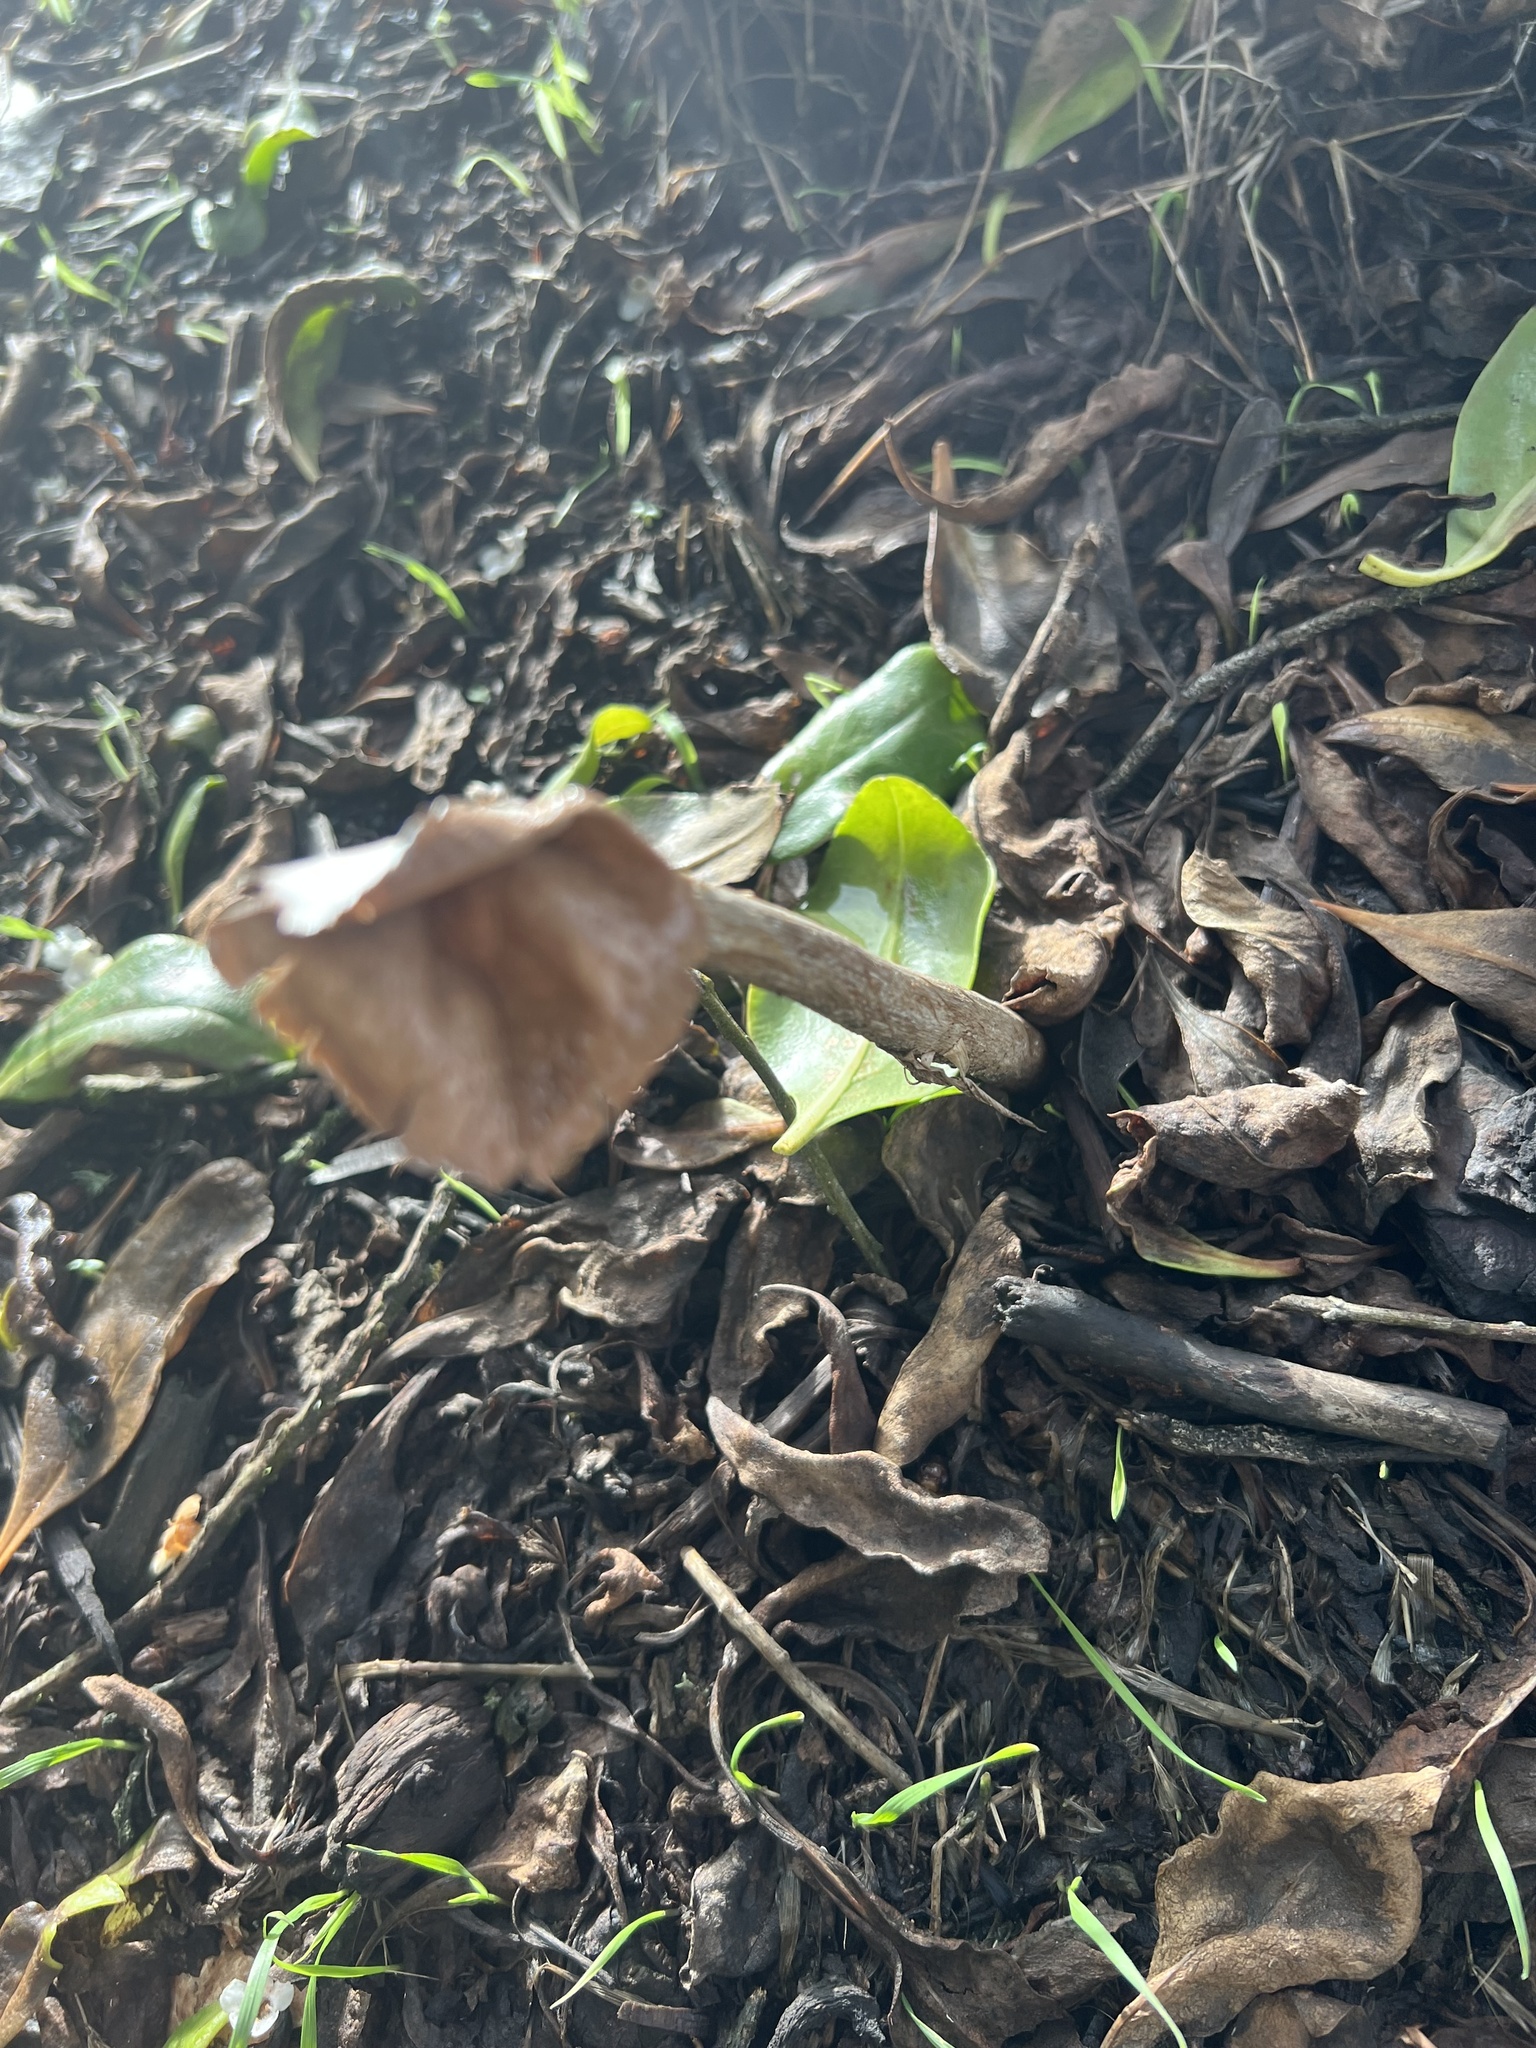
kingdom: Fungi
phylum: Basidiomycota
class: Agaricomycetes
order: Agaricales
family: Agaricaceae
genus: Battarrea
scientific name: Battarrea phalloides
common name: Sandy stiltball
